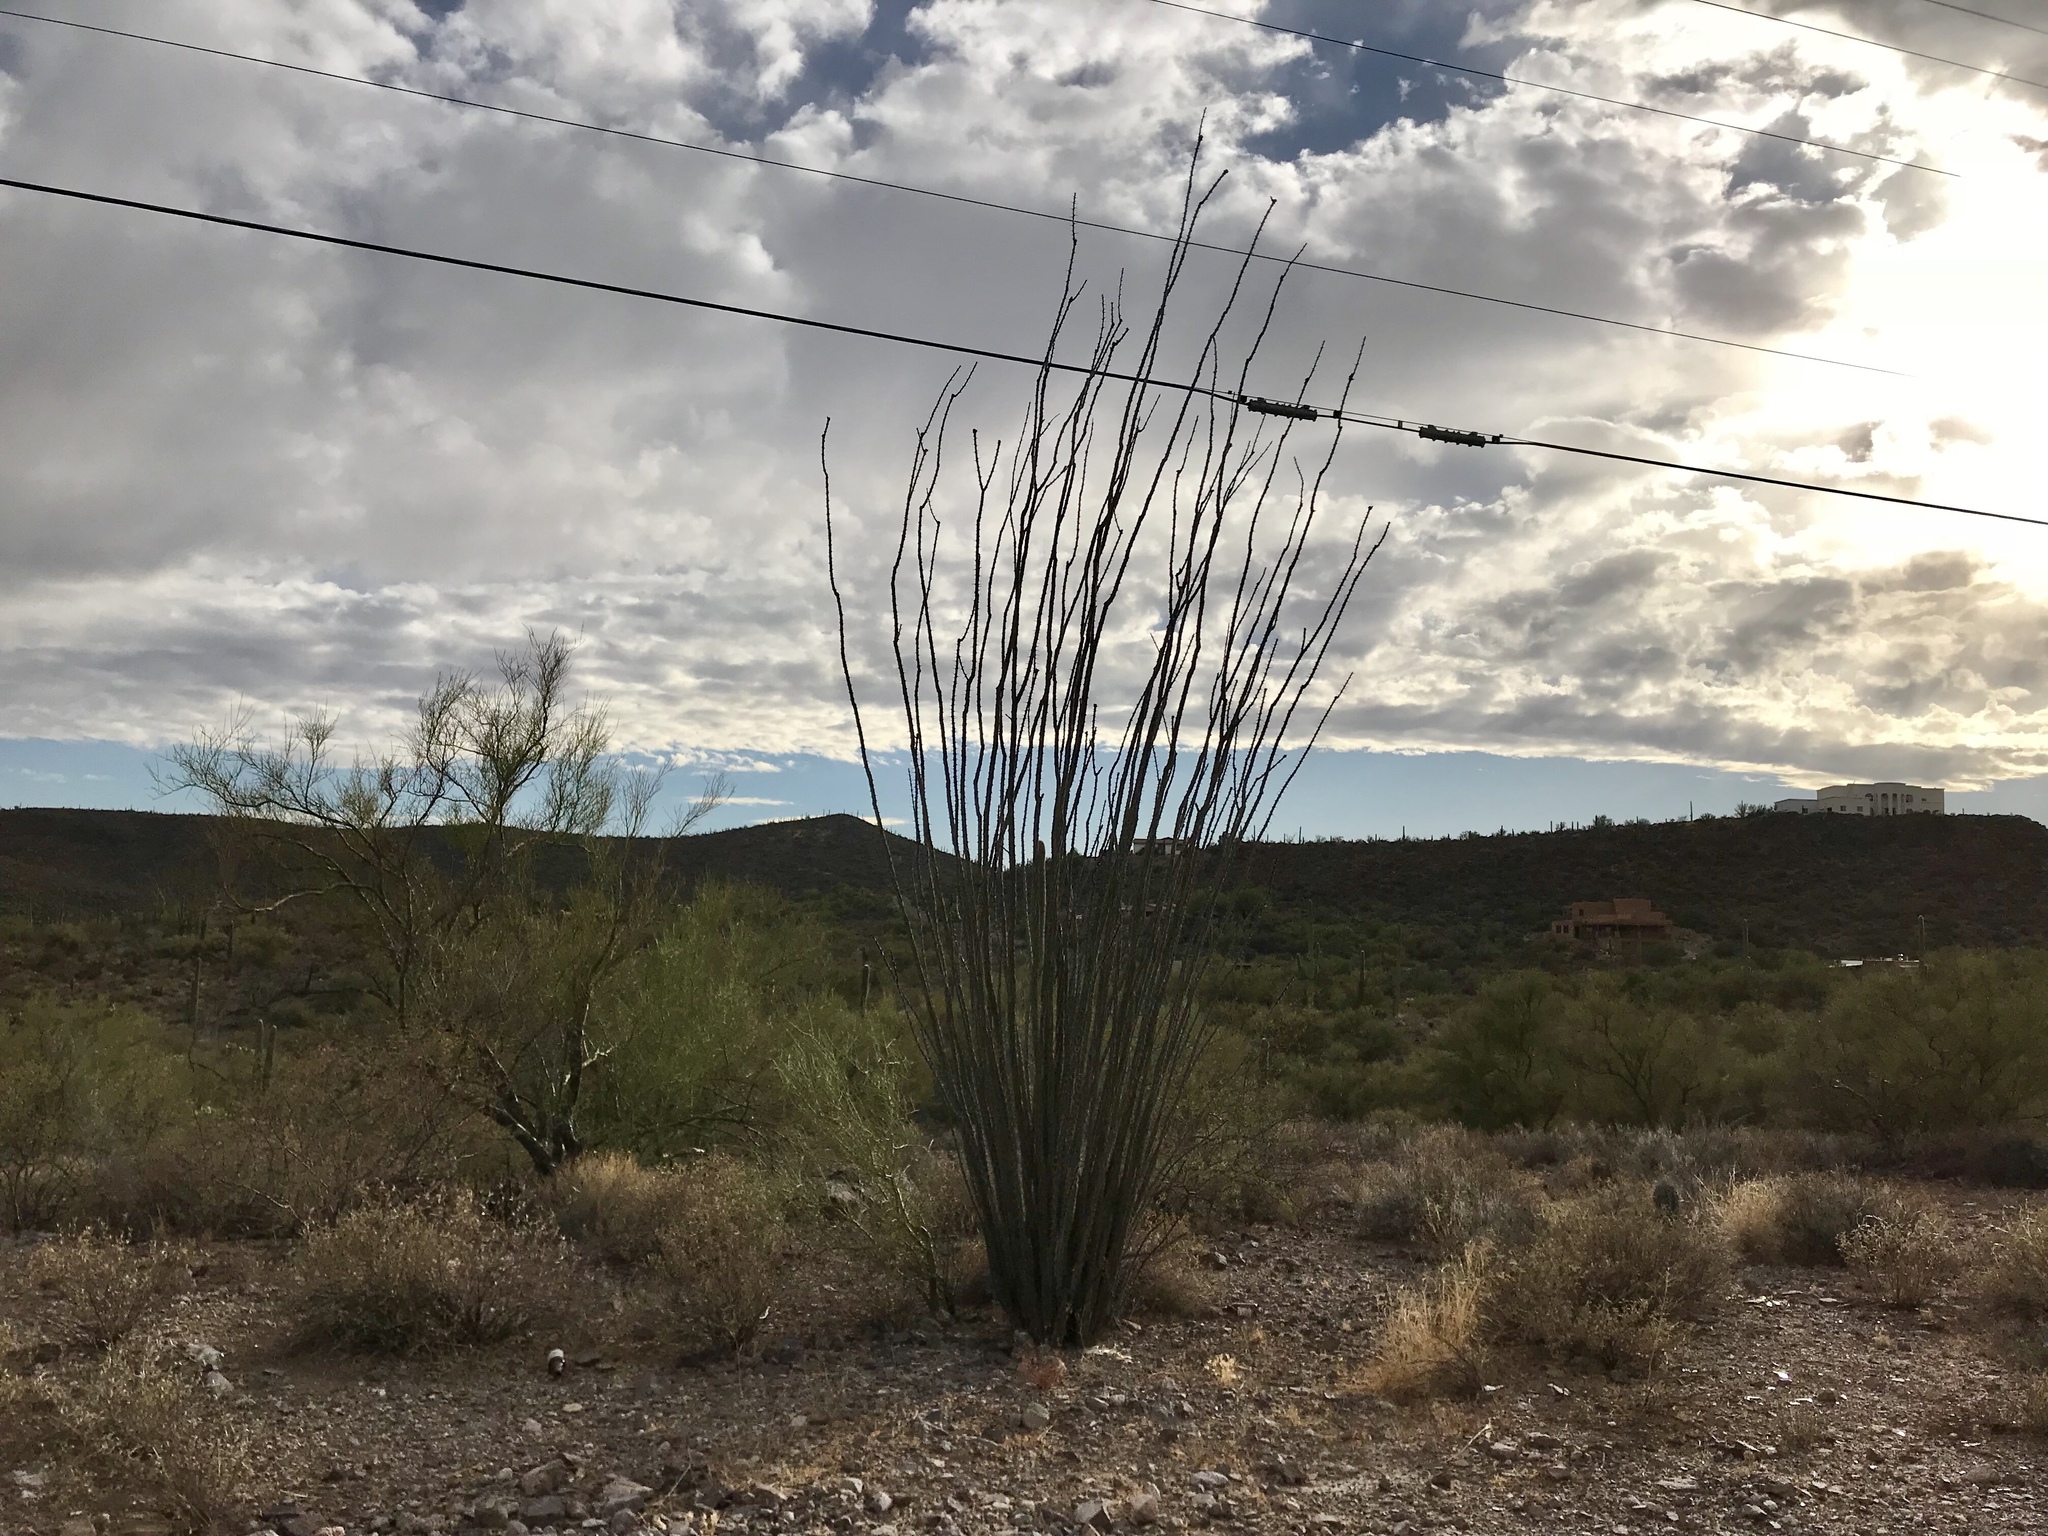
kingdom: Plantae
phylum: Tracheophyta
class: Magnoliopsida
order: Ericales
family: Fouquieriaceae
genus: Fouquieria
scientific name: Fouquieria splendens
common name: Vine-cactus
